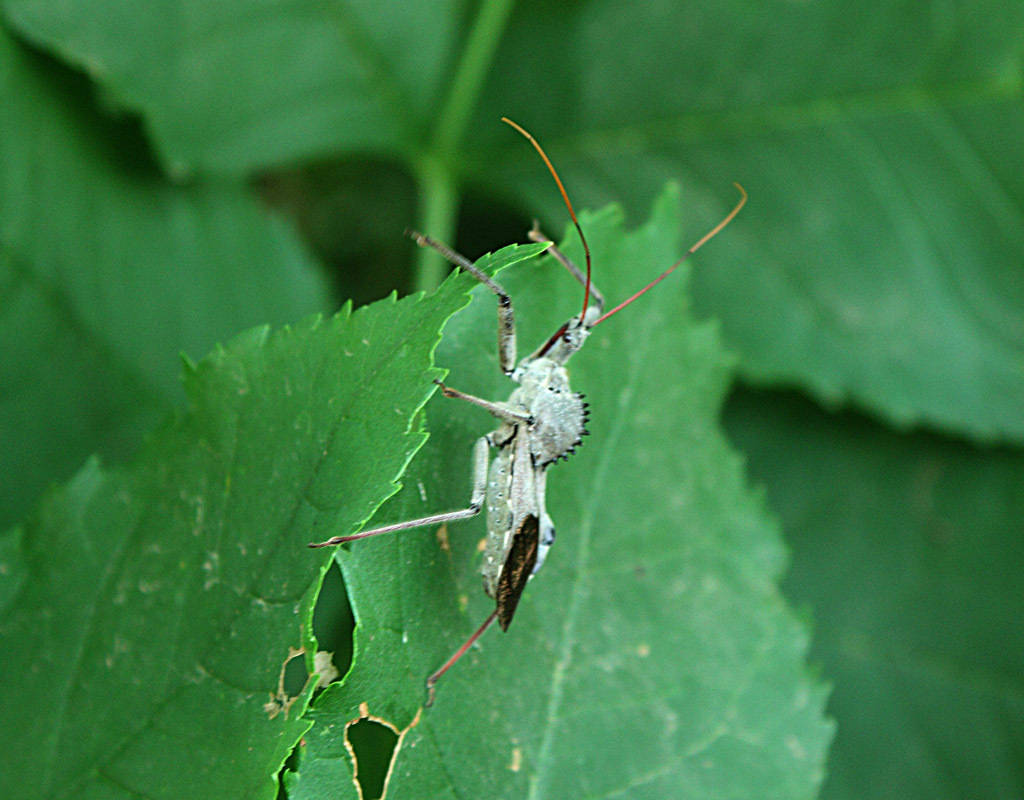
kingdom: Animalia
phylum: Arthropoda
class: Insecta
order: Hemiptera
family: Reduviidae
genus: Arilus
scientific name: Arilus cristatus
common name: North american wheel bug
